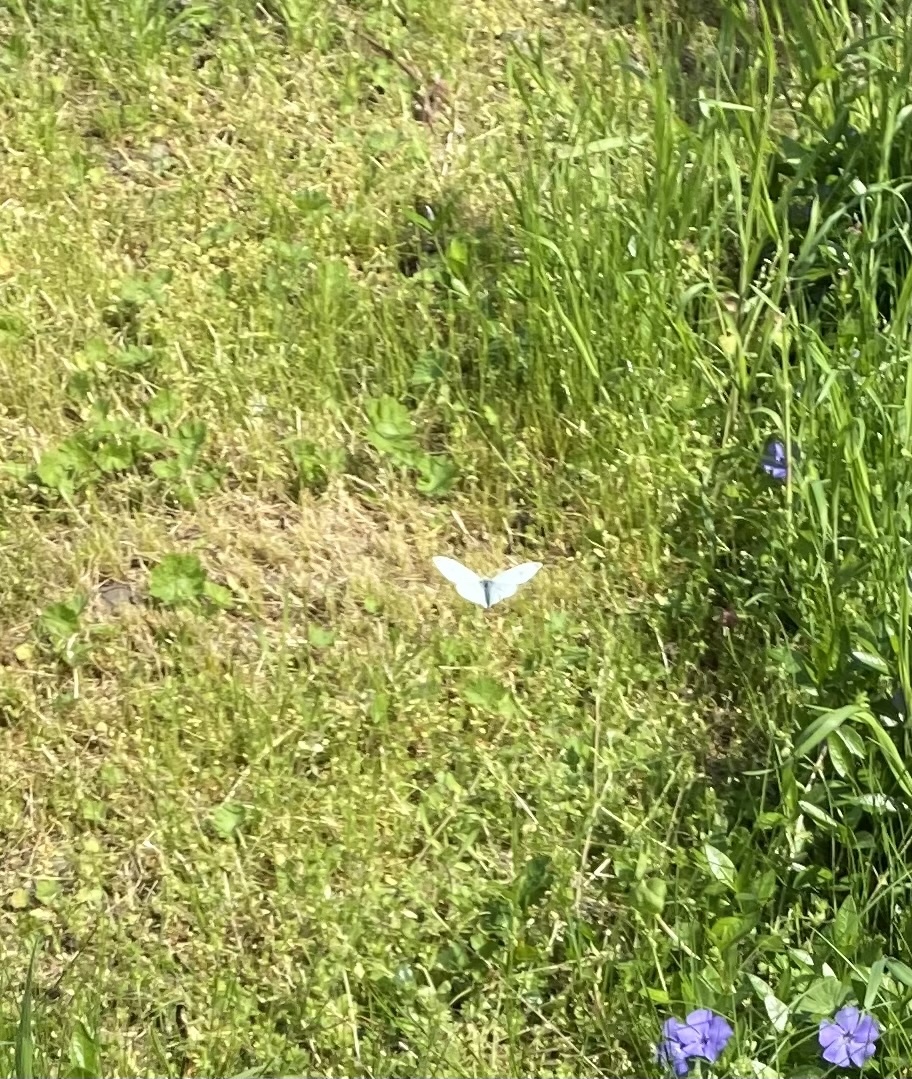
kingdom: Animalia
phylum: Arthropoda
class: Insecta
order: Lepidoptera
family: Pieridae
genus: Pieris
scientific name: Pieris rapae
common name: Small white
